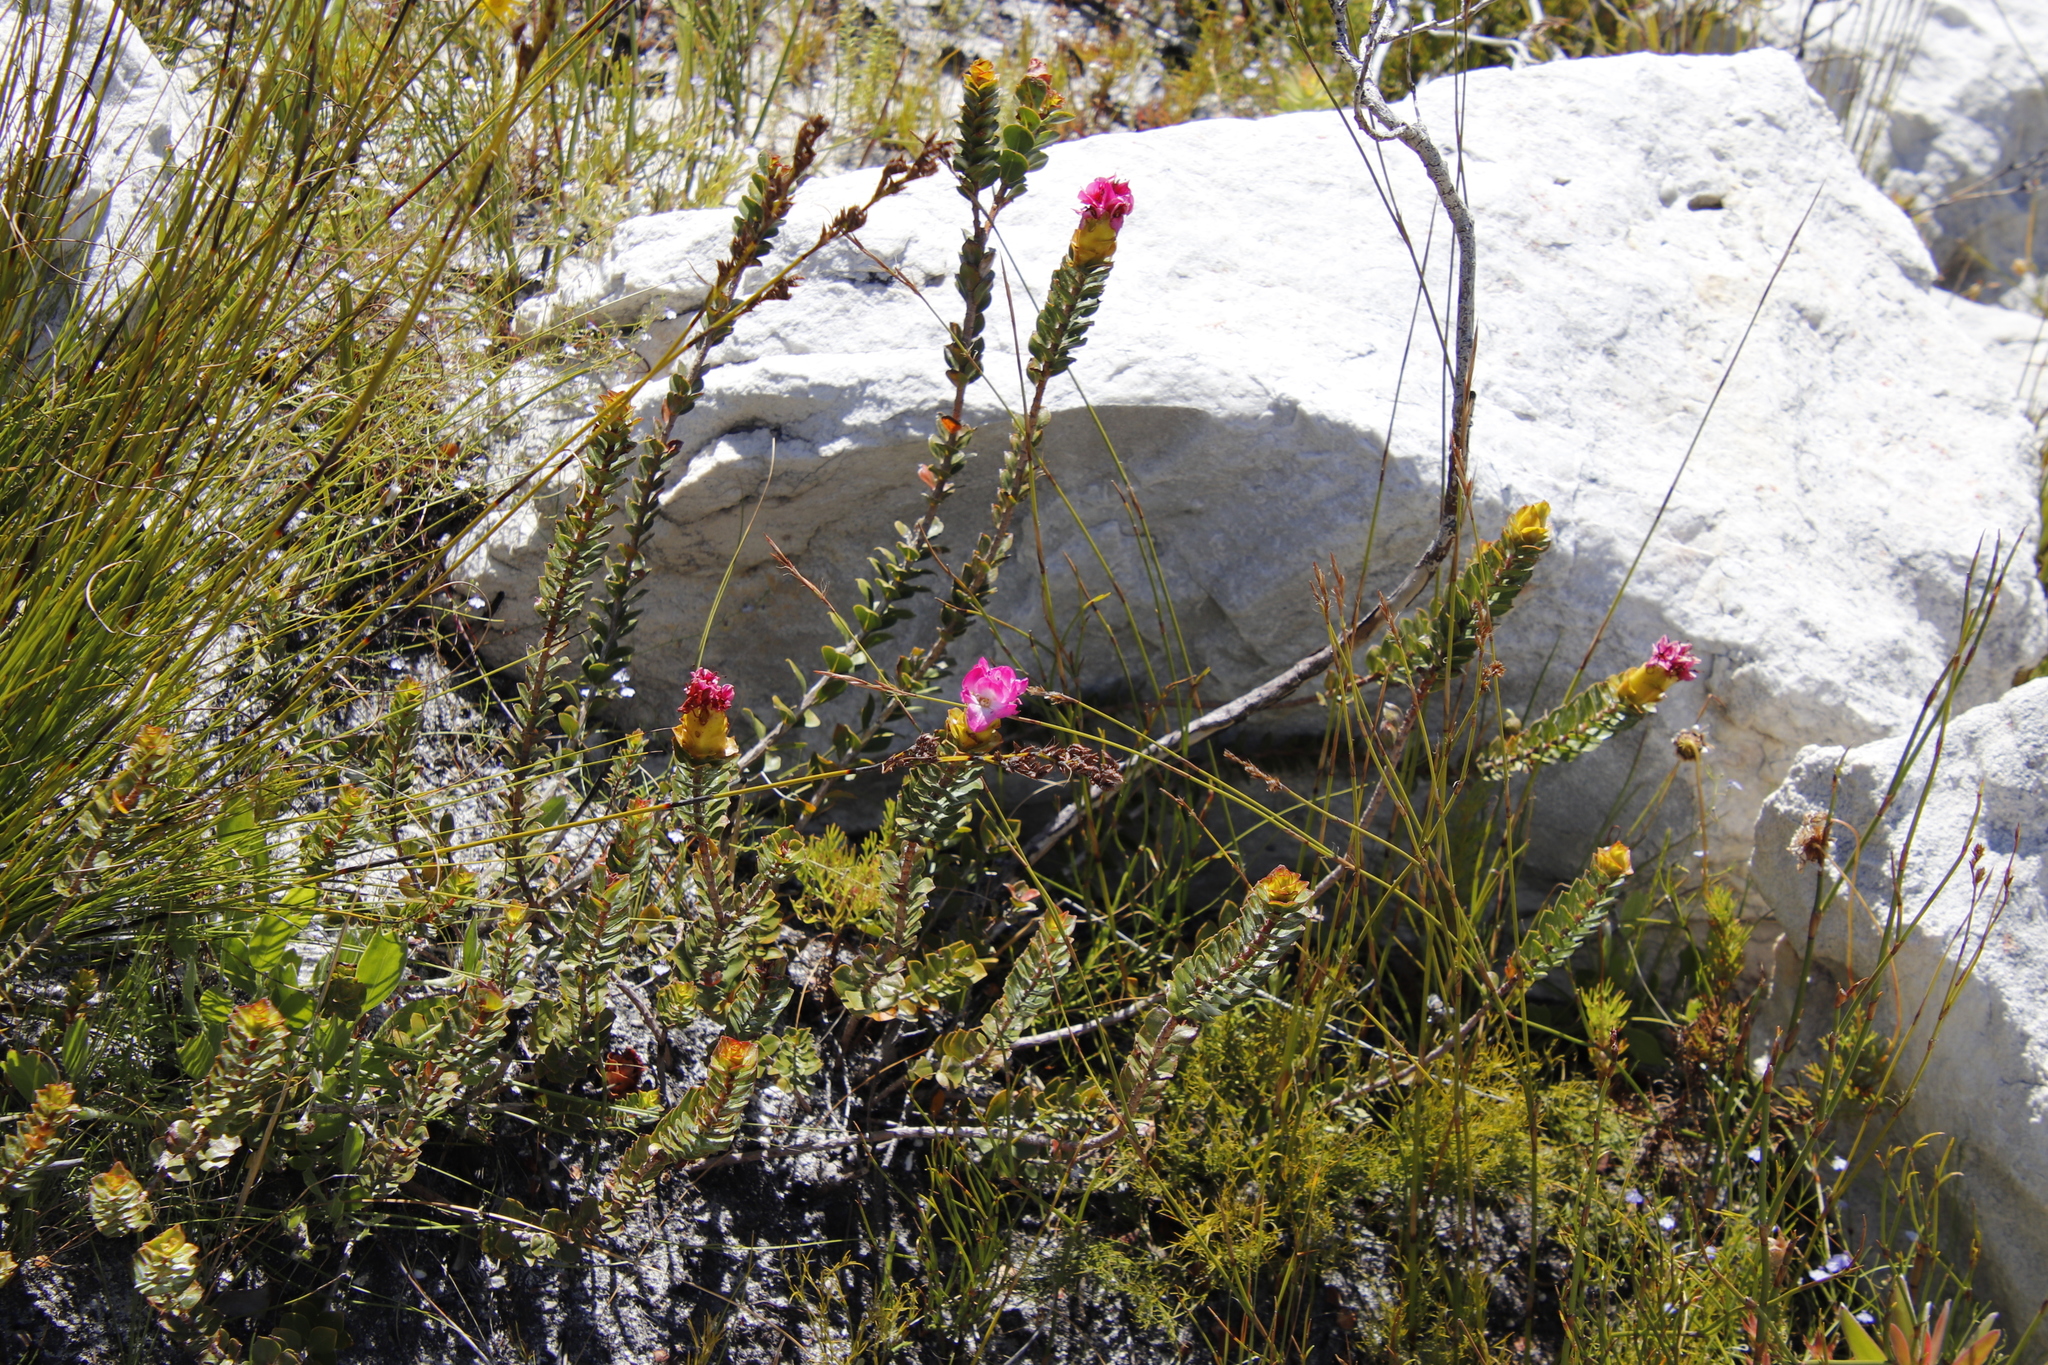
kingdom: Plantae
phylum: Tracheophyta
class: Magnoliopsida
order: Myrtales
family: Penaeaceae
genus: Saltera
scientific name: Saltera sarcocolla
